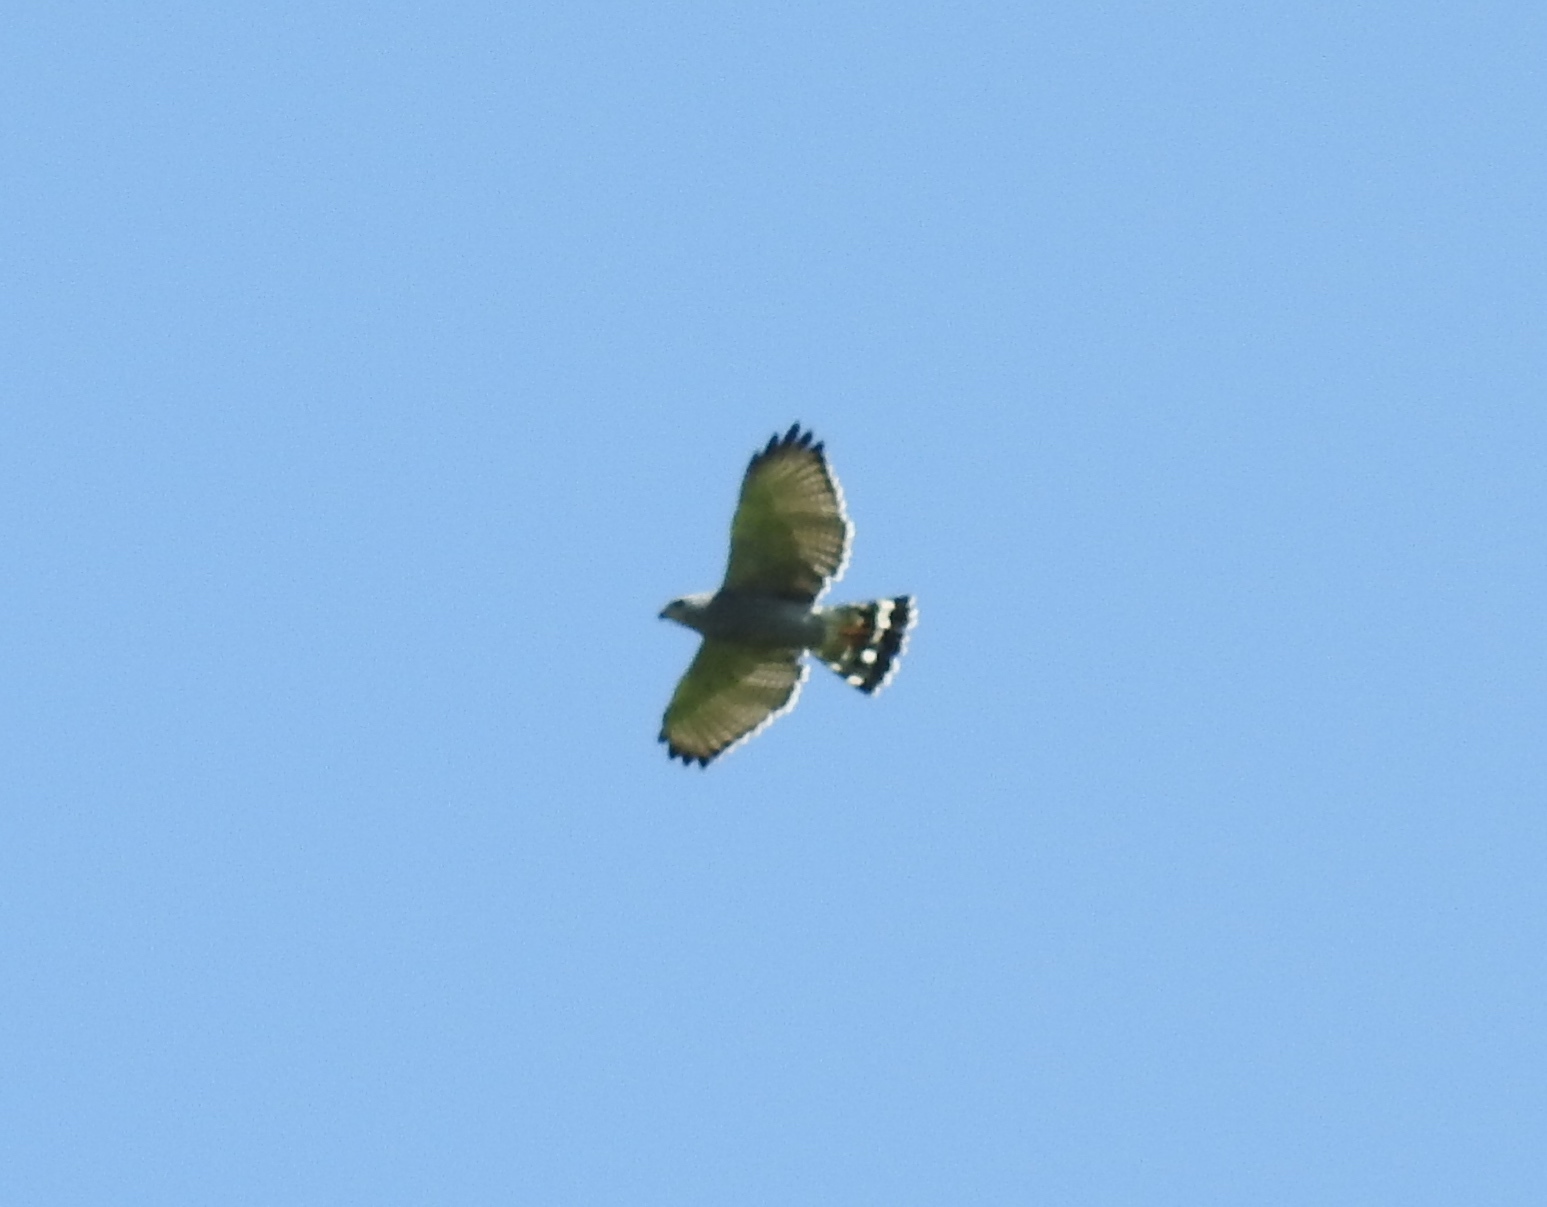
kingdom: Animalia
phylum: Chordata
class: Aves
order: Accipitriformes
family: Accipitridae
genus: Buteo
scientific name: Buteo nitidus
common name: Grey-lined hawk
